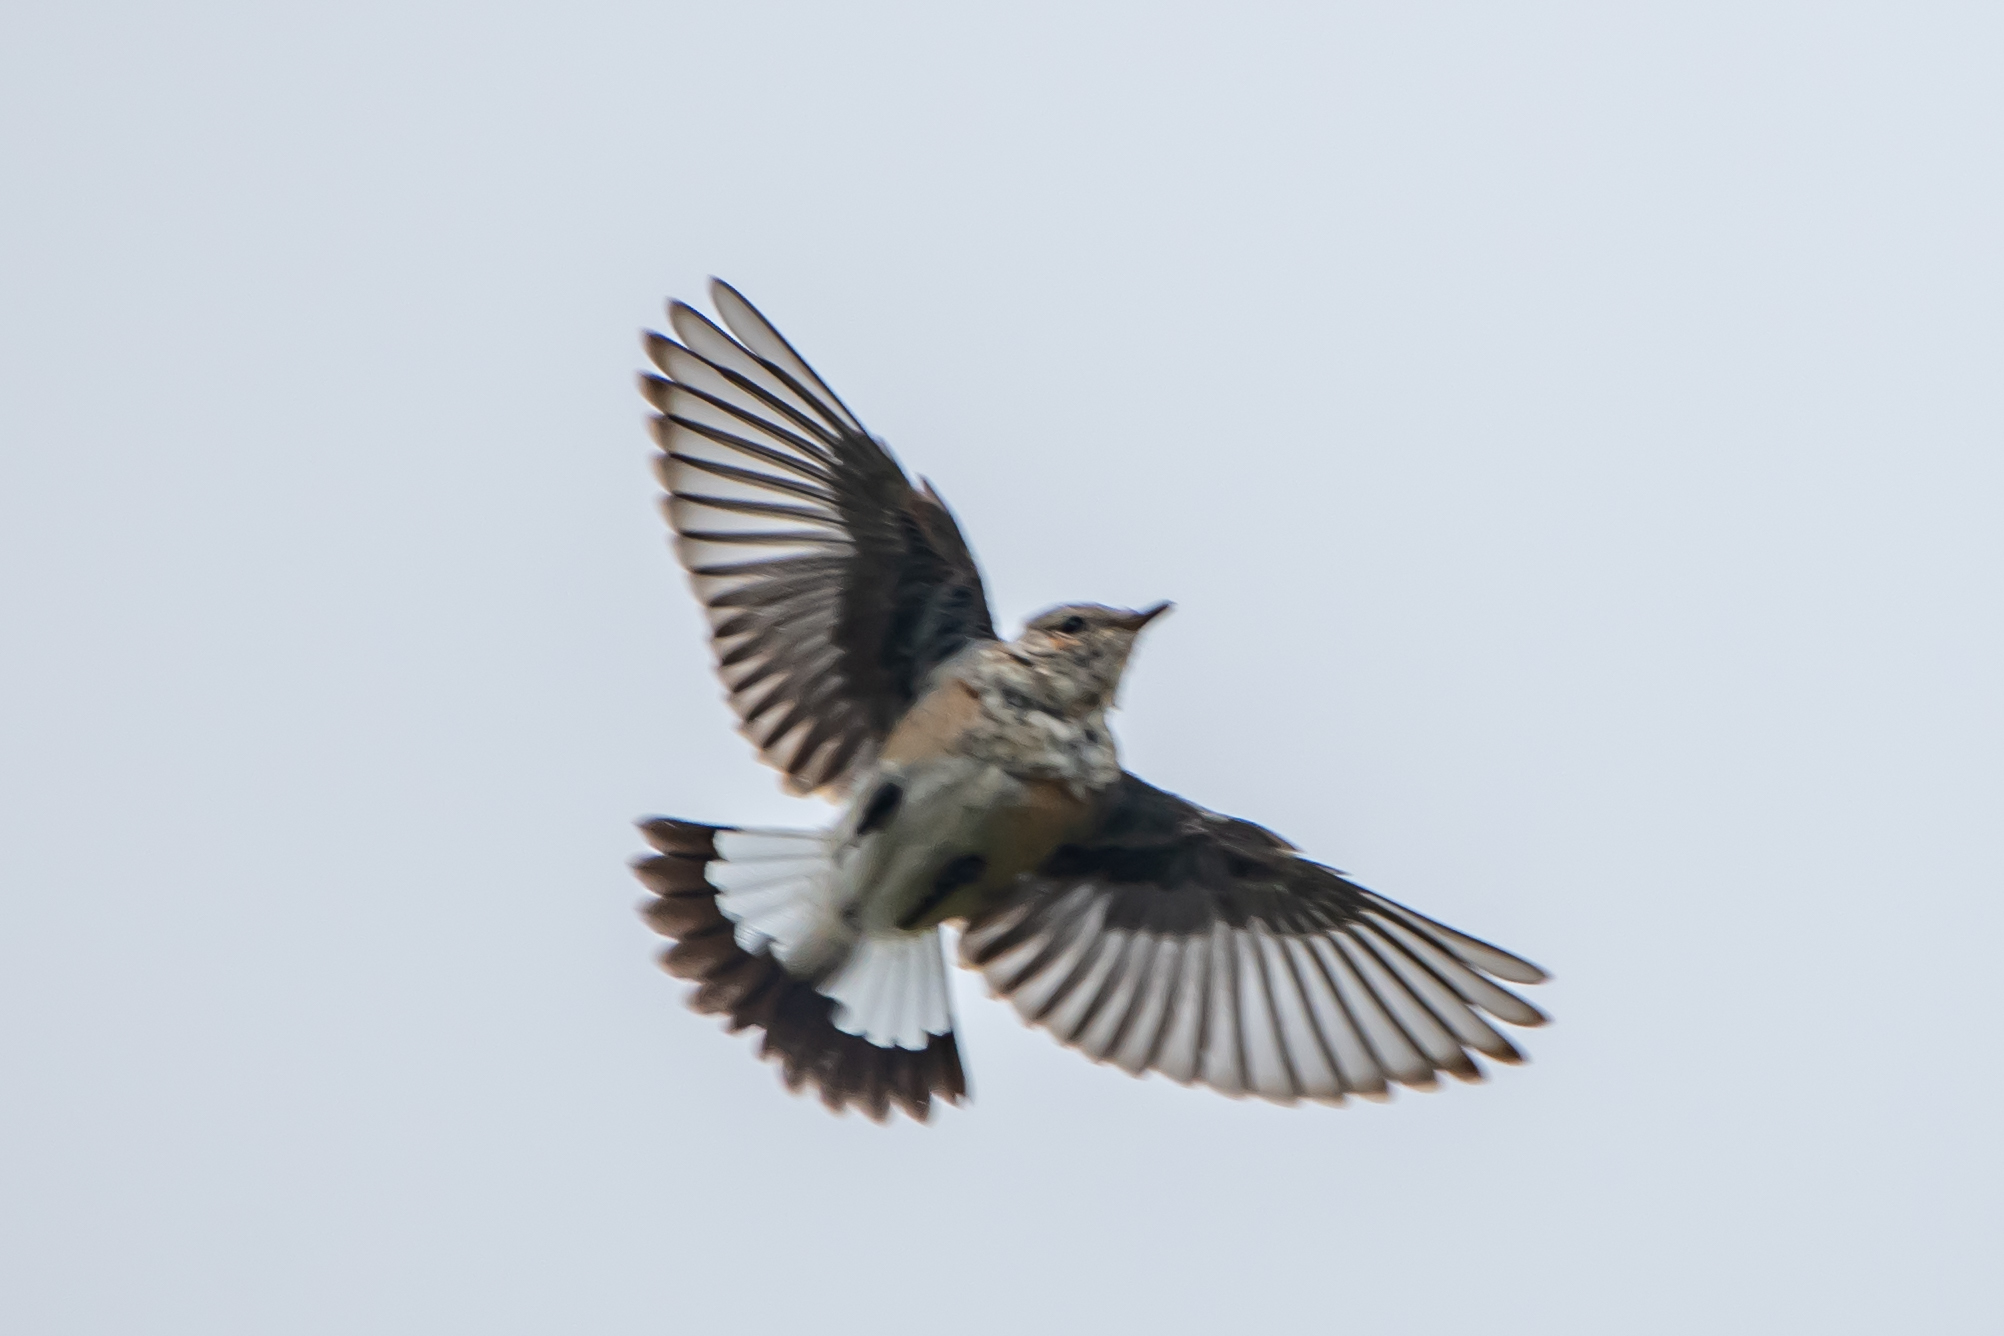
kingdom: Animalia
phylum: Chordata
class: Aves
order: Passeriformes
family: Muscicapidae
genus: Oenanthe
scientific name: Oenanthe oenanthe
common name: Northern wheatear
